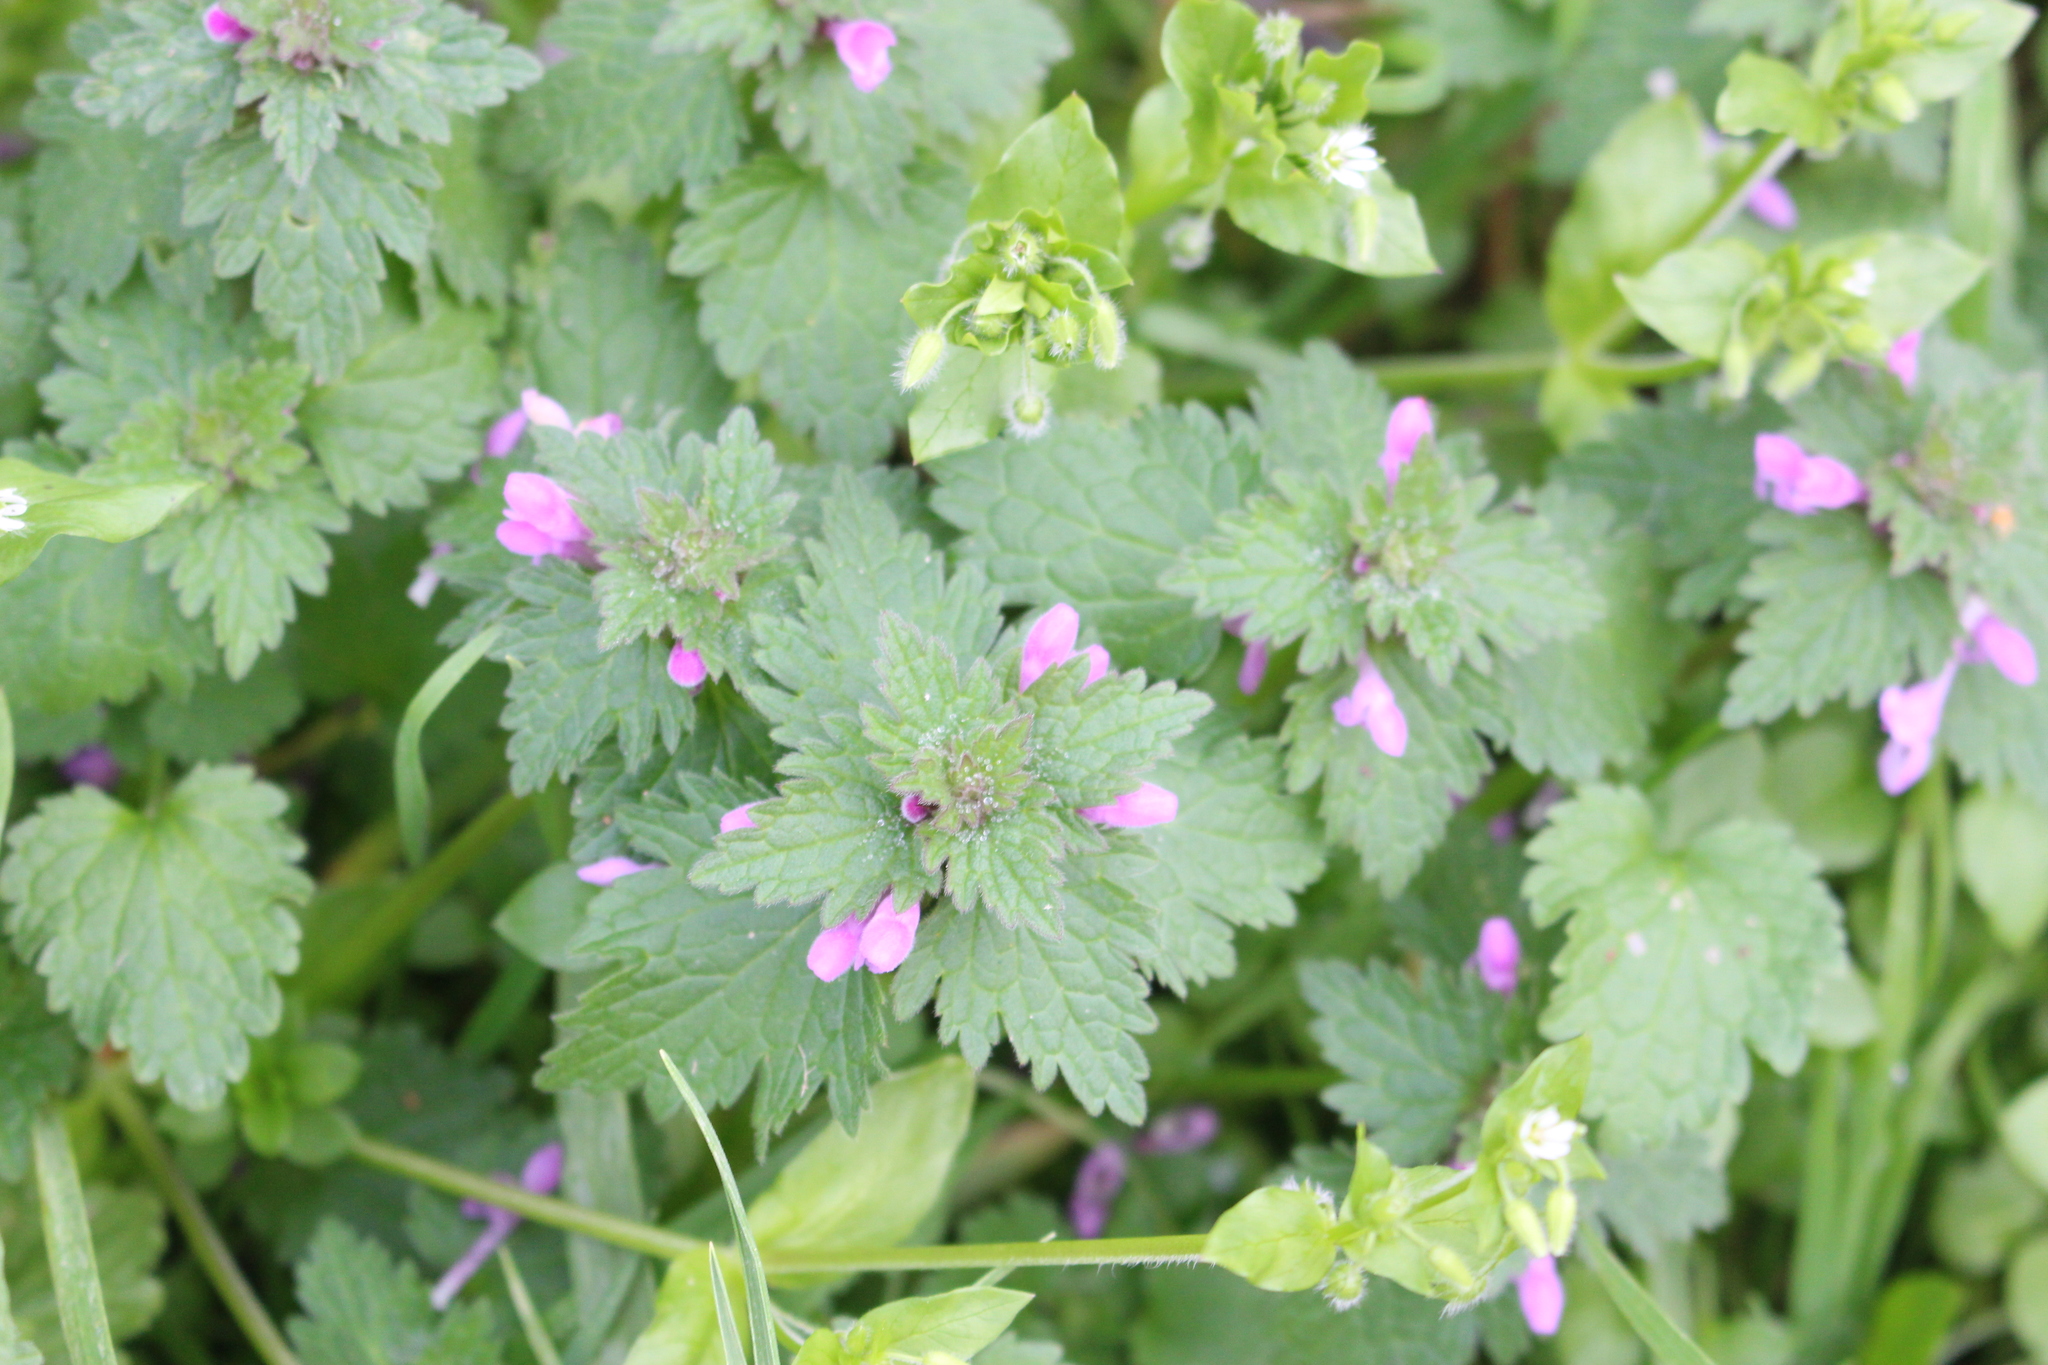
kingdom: Plantae
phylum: Tracheophyta
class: Magnoliopsida
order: Lamiales
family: Lamiaceae
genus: Lamium
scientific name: Lamium hybridum
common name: Cut-leaved dead-nettle
